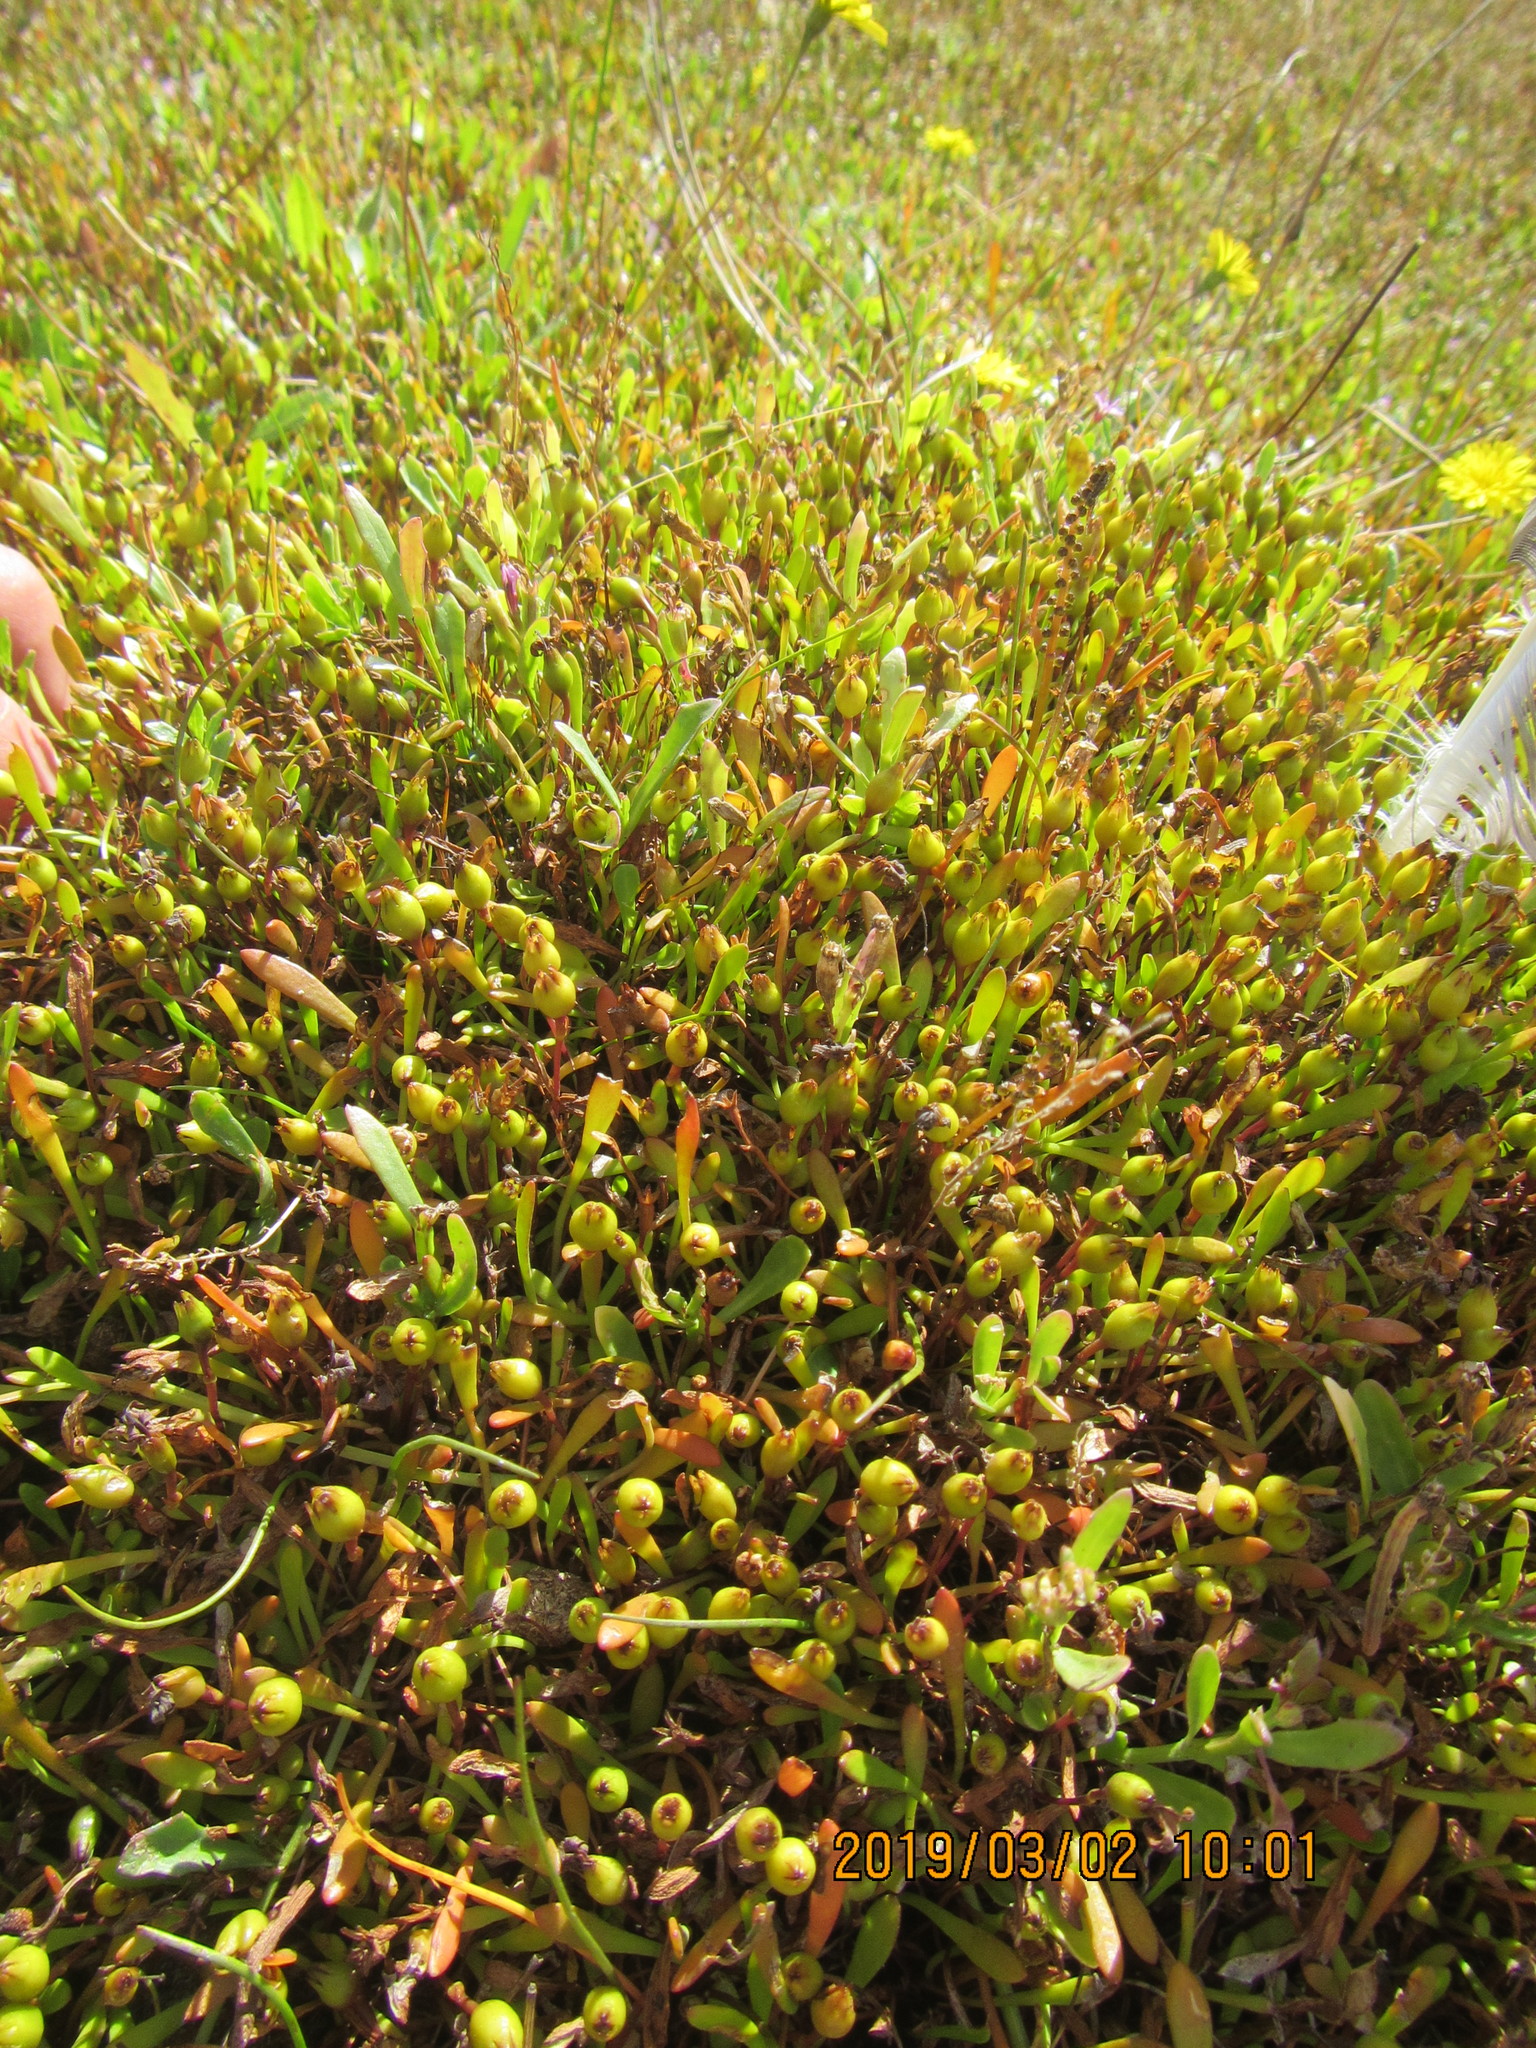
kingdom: Plantae
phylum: Tracheophyta
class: Magnoliopsida
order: Asterales
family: Goodeniaceae
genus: Goodenia
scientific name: Goodenia radicans
